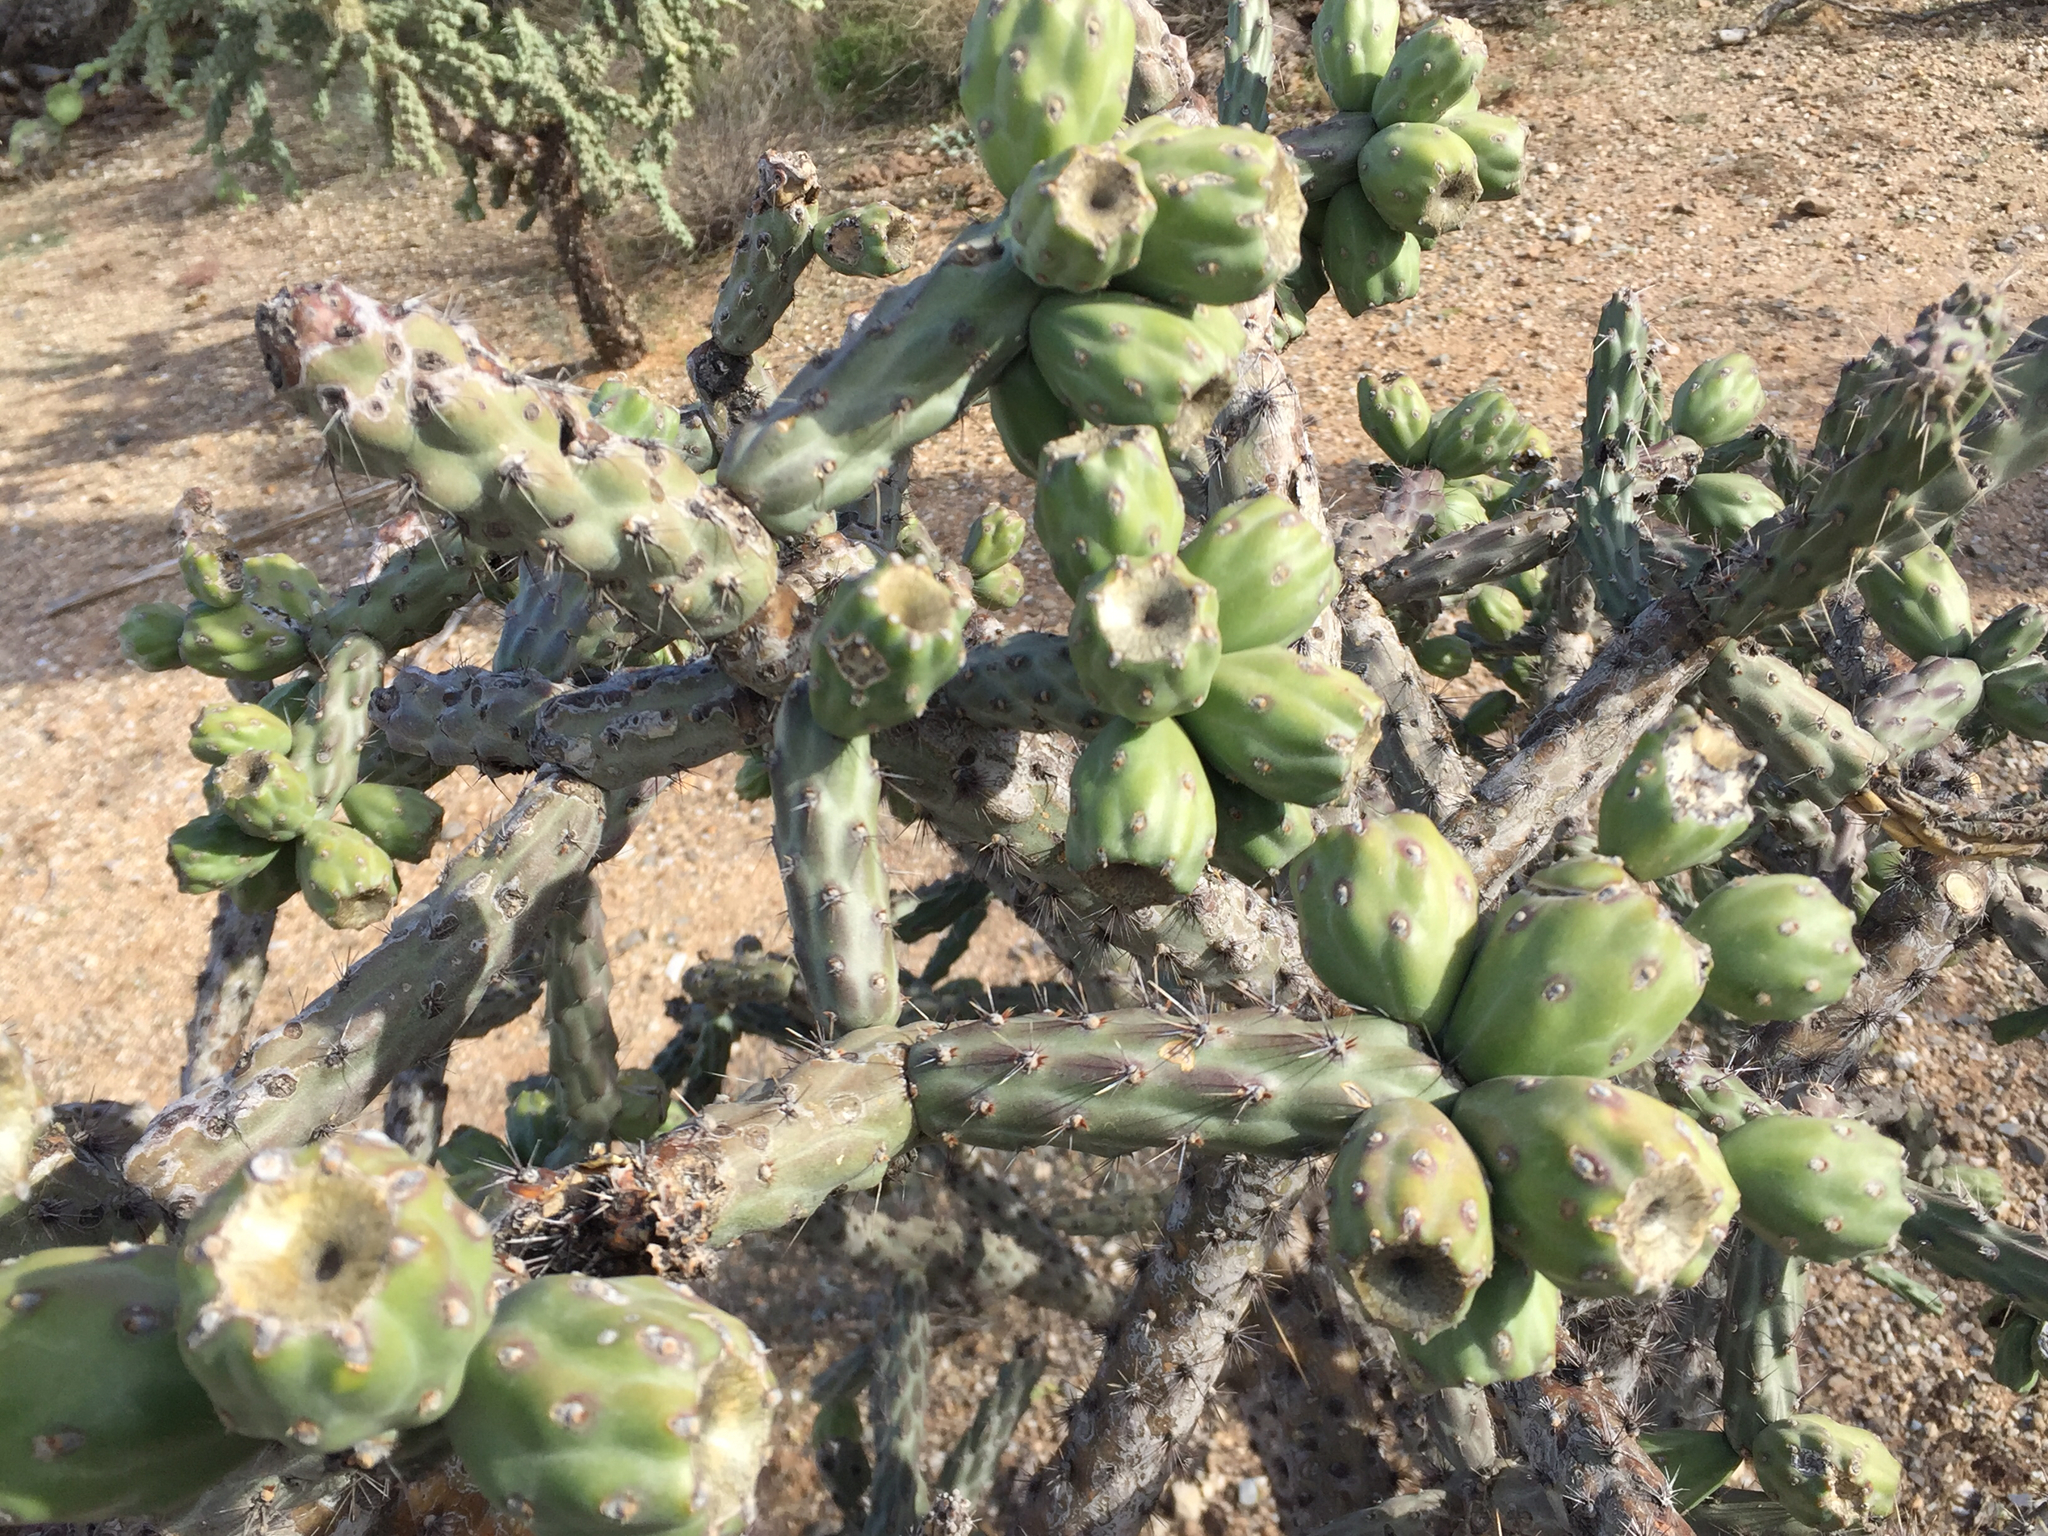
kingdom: Plantae
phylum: Tracheophyta
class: Magnoliopsida
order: Caryophyllales
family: Cactaceae
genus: Cylindropuntia
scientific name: Cylindropuntia thurberi
